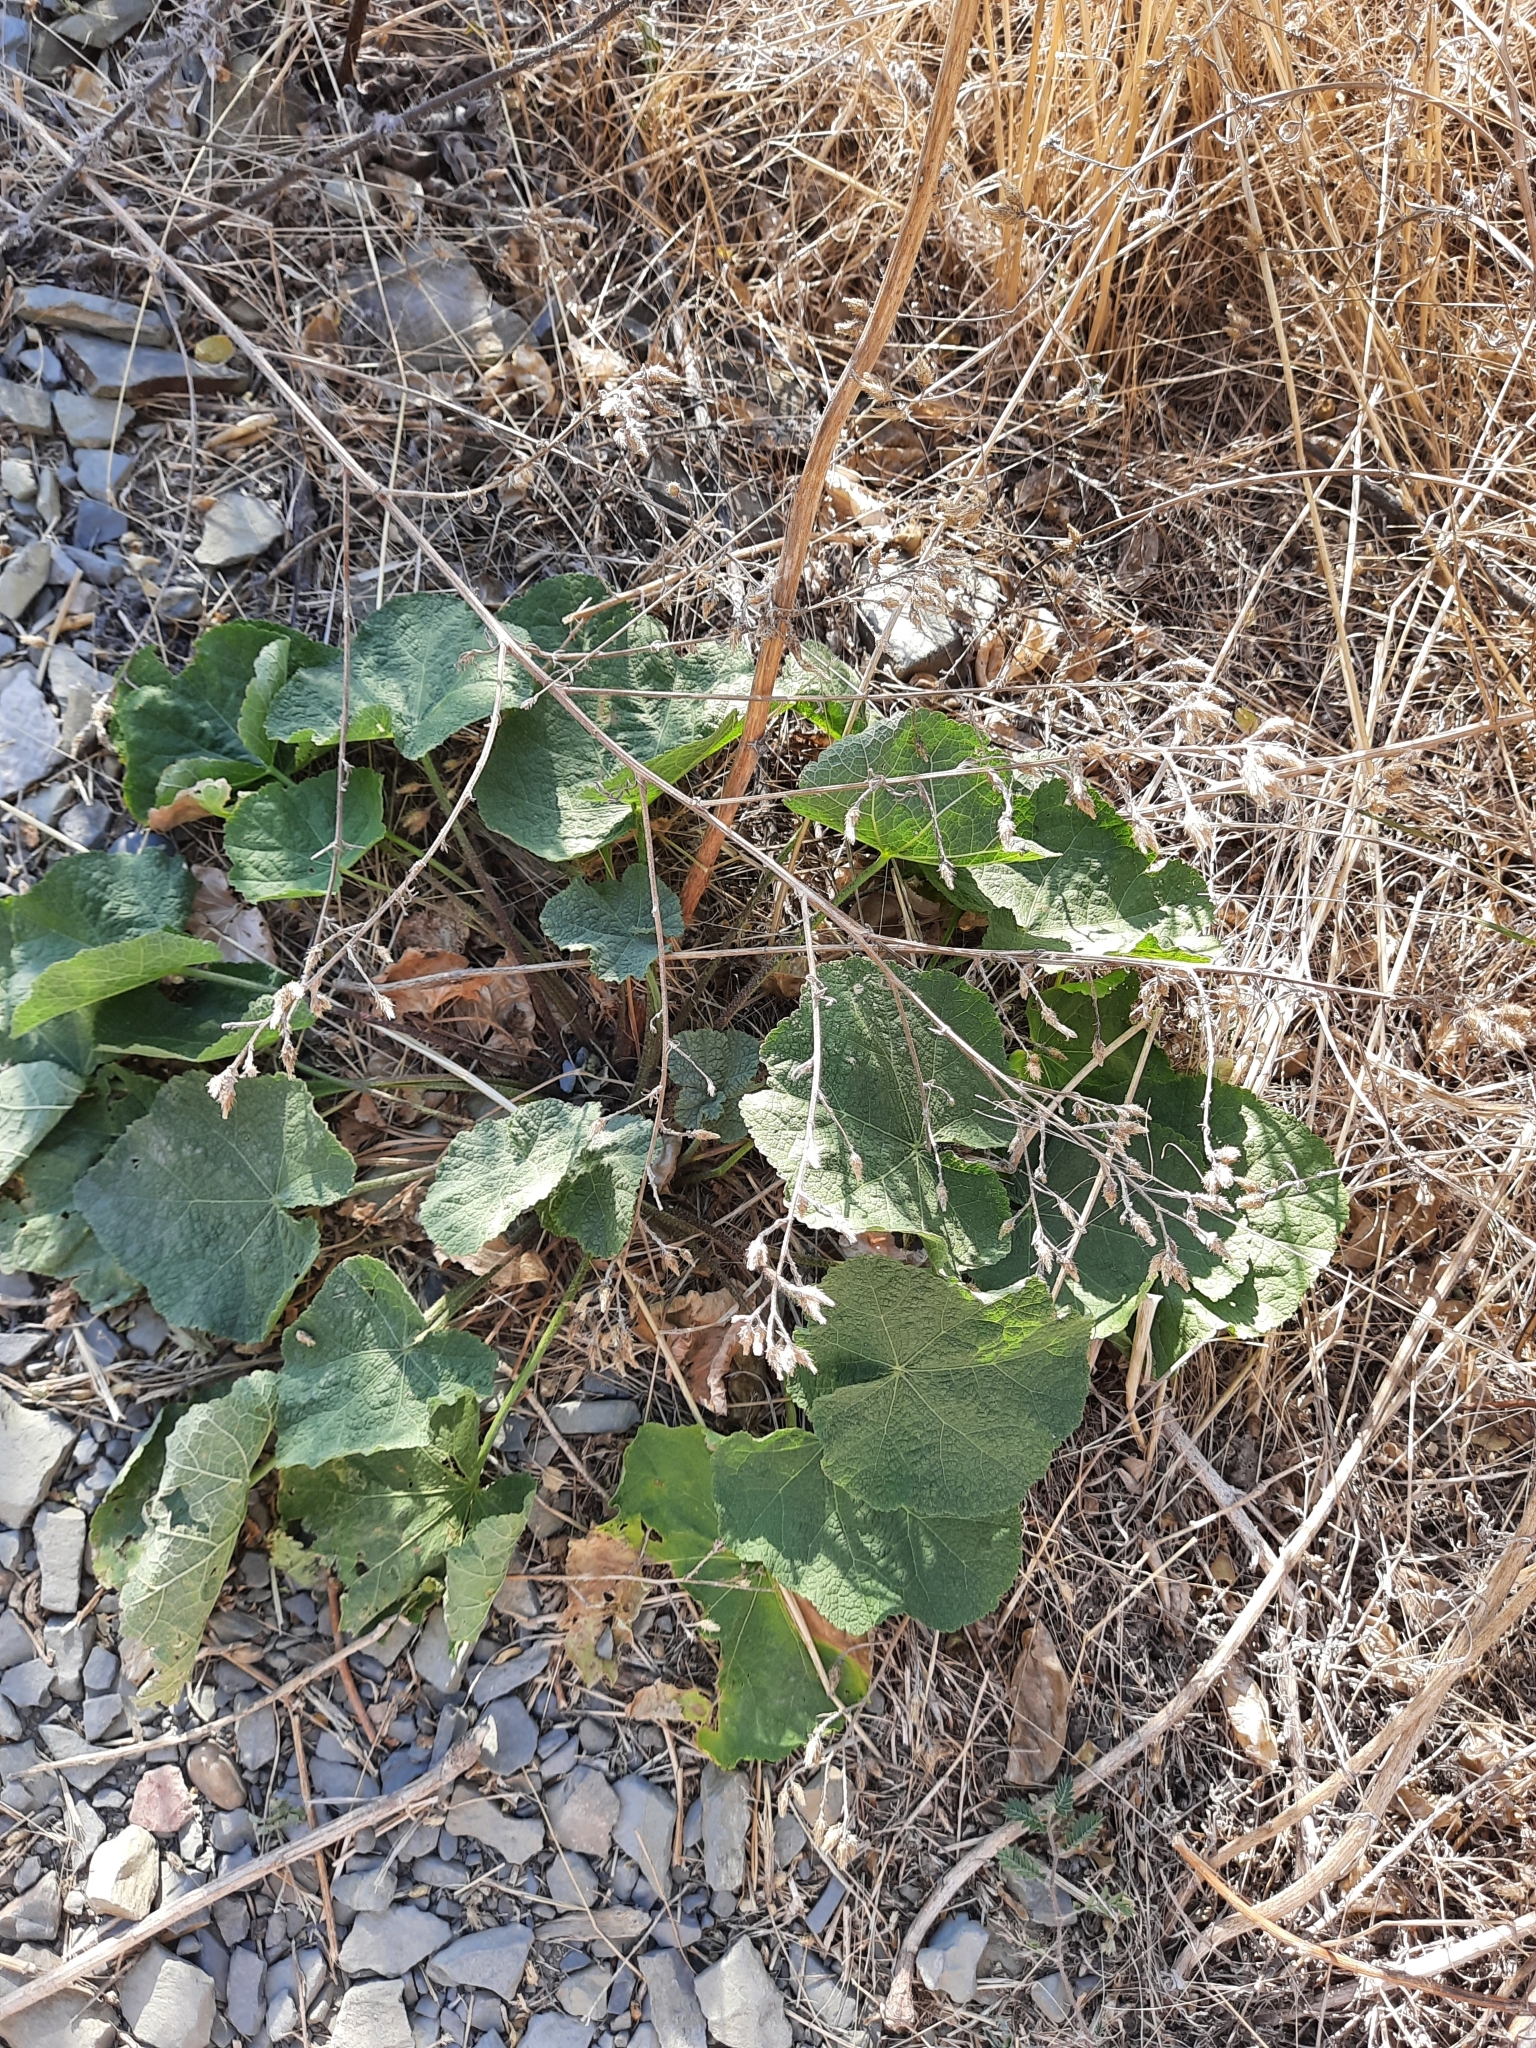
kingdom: Plantae
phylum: Tracheophyta
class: Magnoliopsida
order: Malvales
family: Malvaceae
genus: Alcea
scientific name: Alcea rugosa
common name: Russian hollyhock
